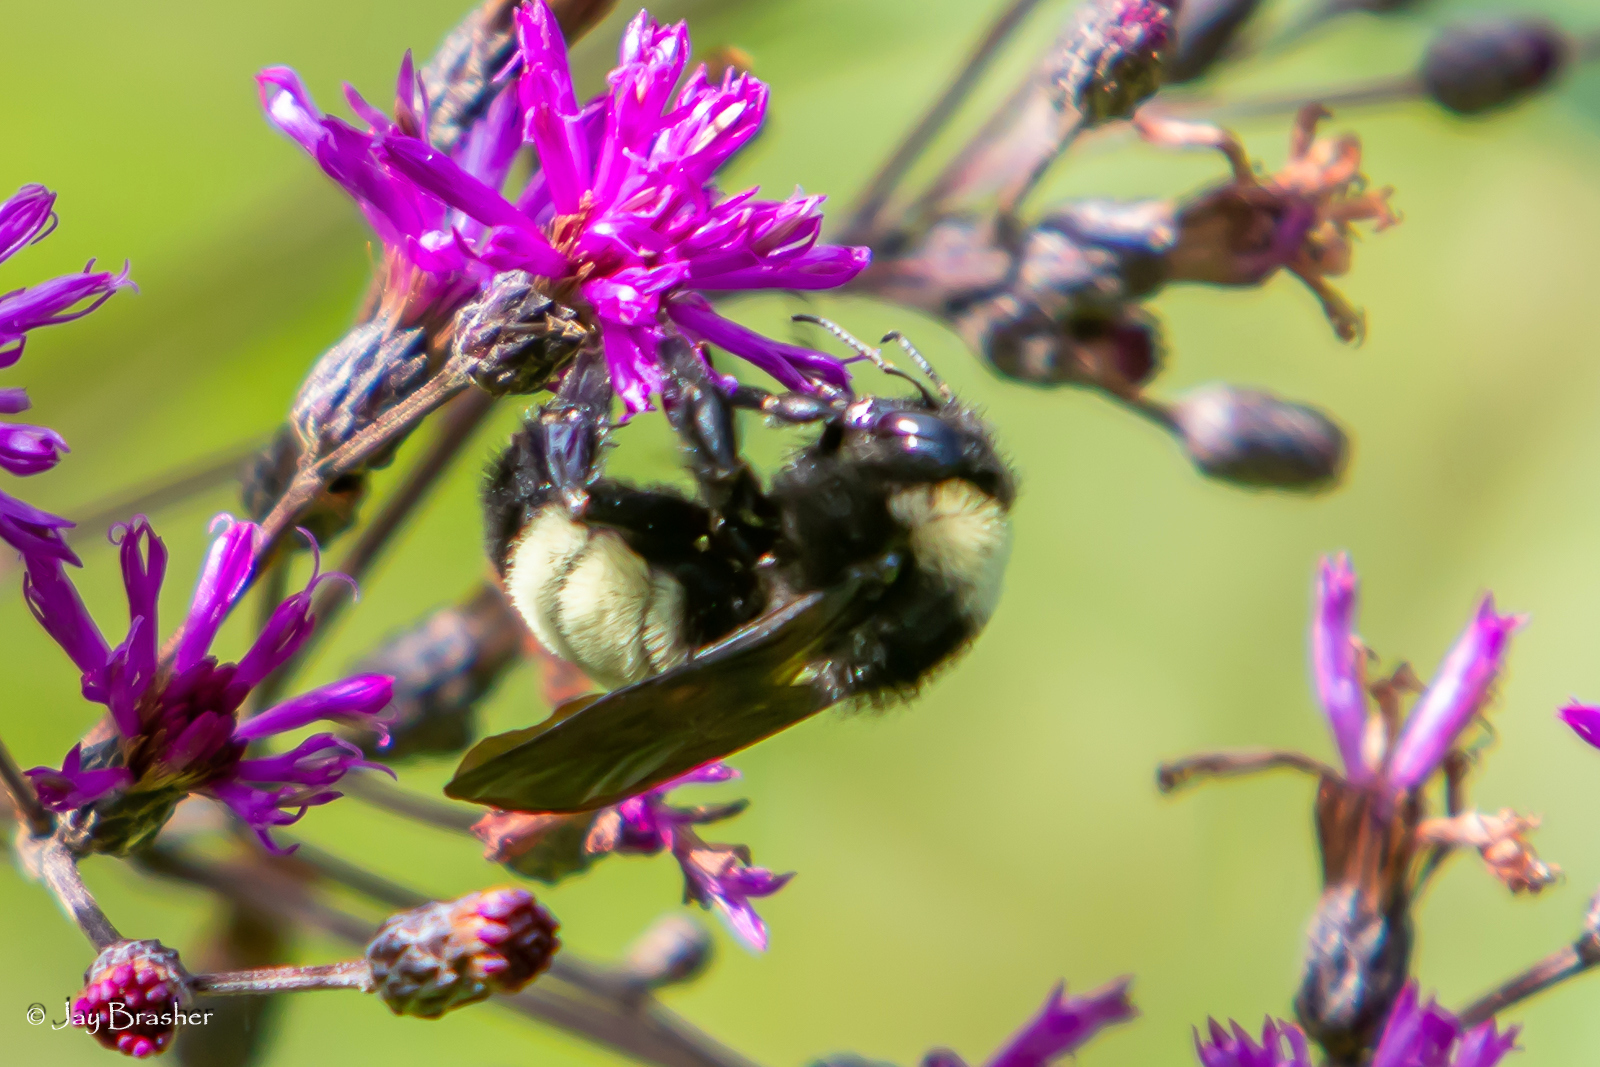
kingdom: Animalia
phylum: Arthropoda
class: Insecta
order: Hymenoptera
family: Apidae
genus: Bombus
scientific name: Bombus pensylvanicus
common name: Bumble bee
